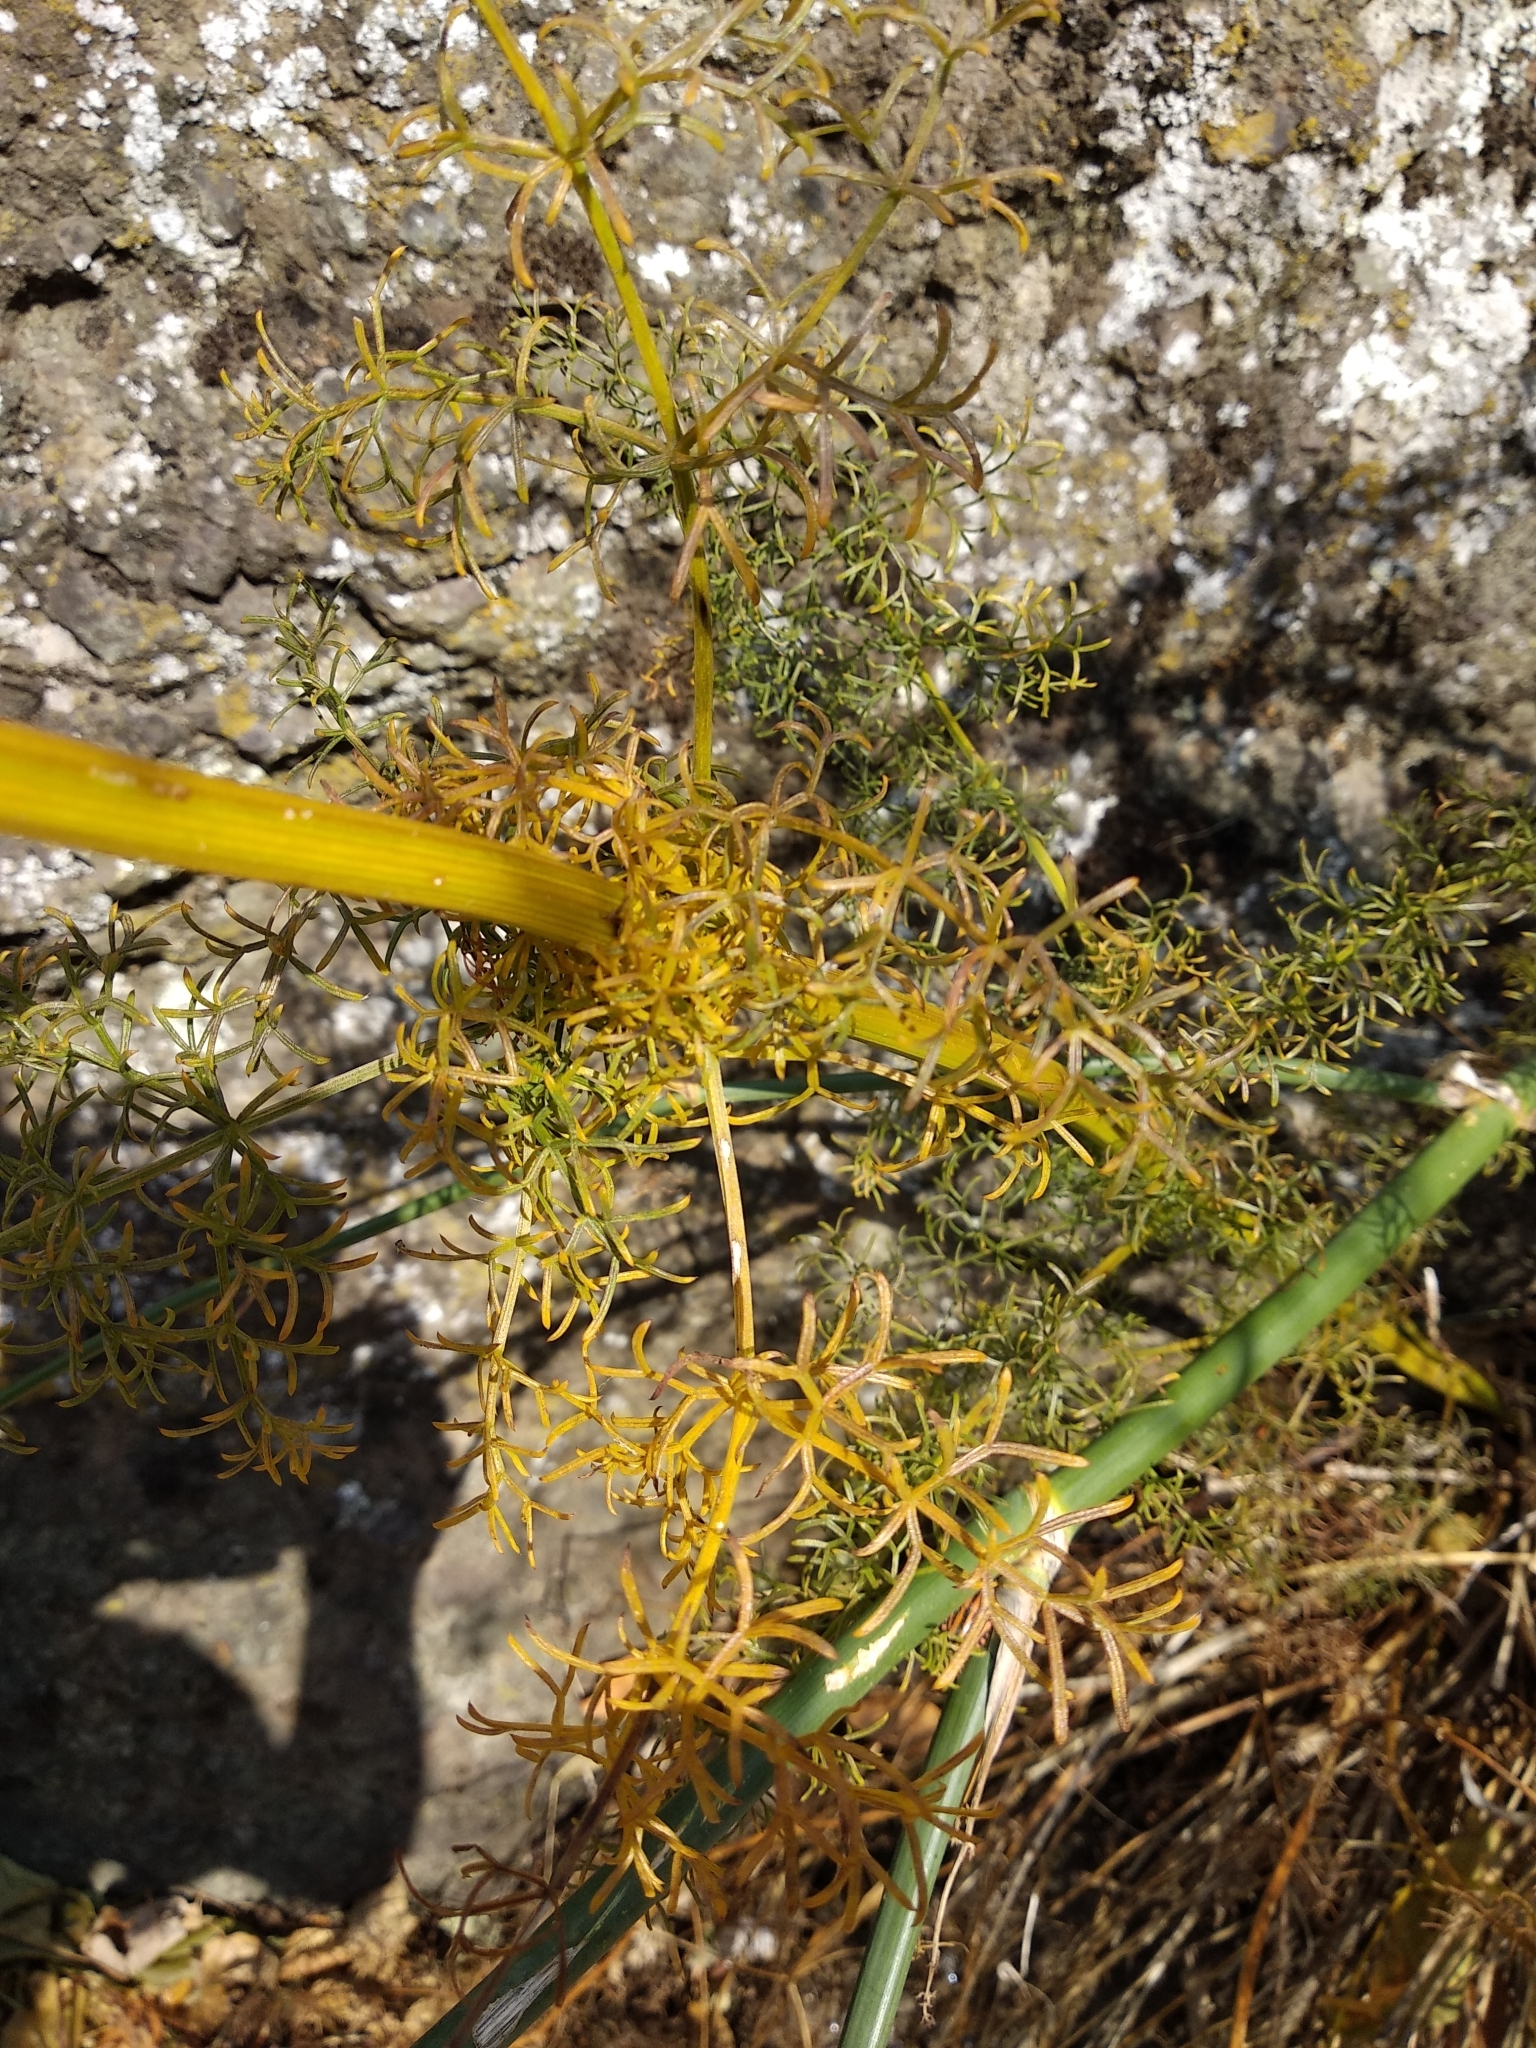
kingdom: Plantae
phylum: Tracheophyta
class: Magnoliopsida
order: Apiales
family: Apiaceae
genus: Foeniculum
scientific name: Foeniculum vulgare
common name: Fennel
